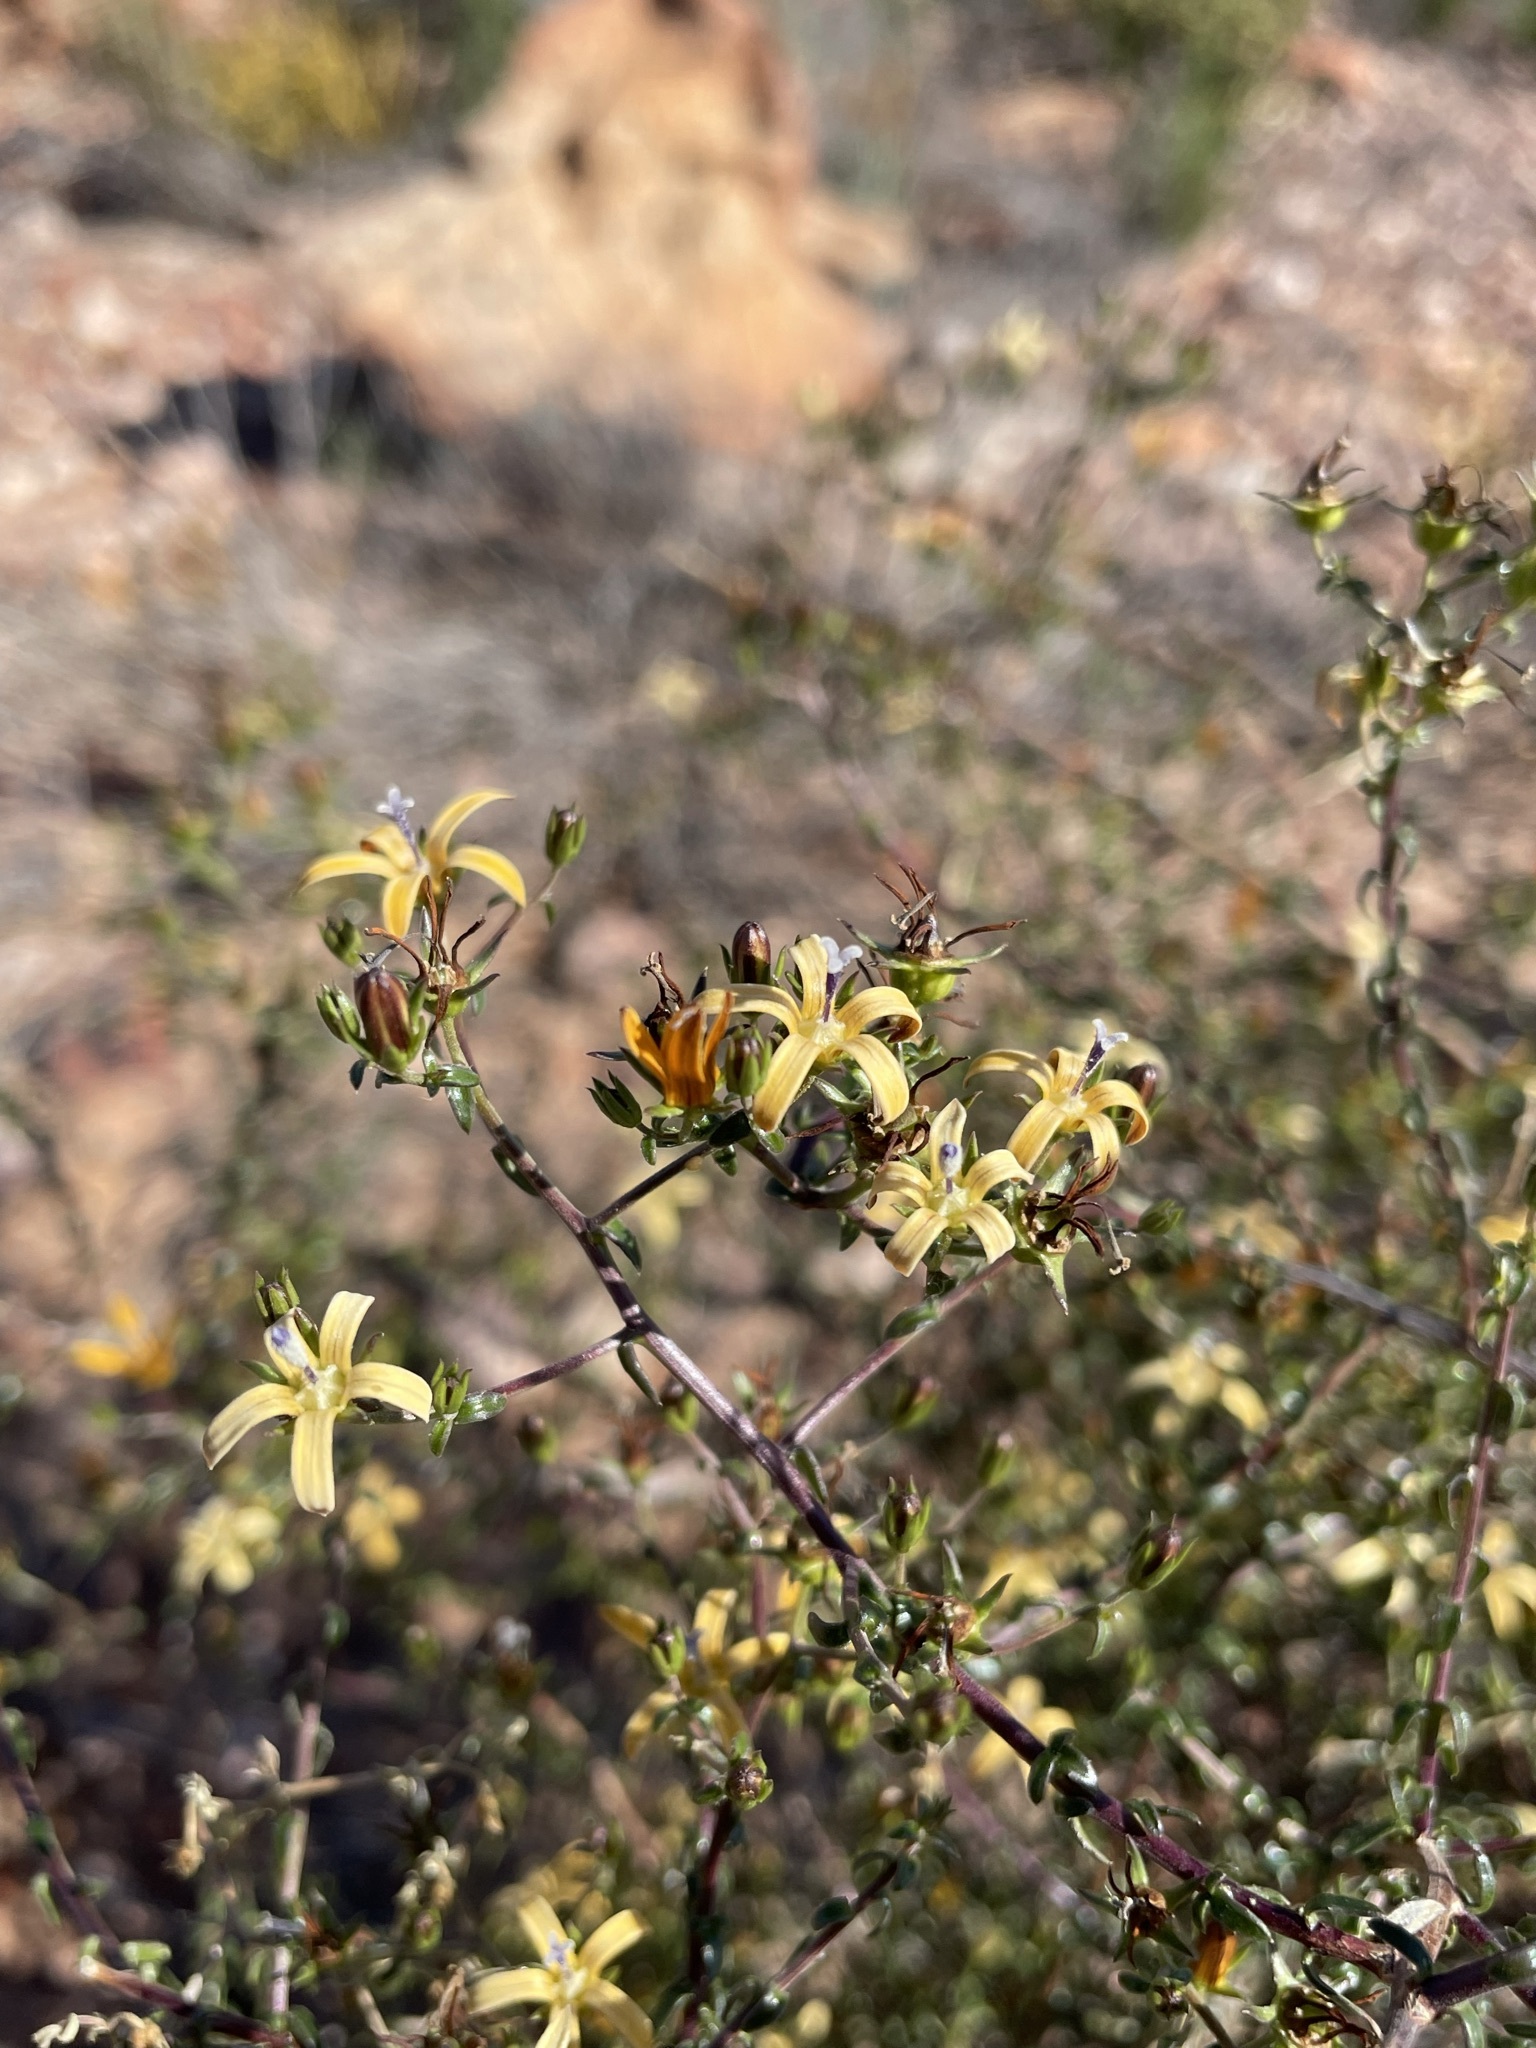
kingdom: Plantae
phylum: Tracheophyta
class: Magnoliopsida
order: Asterales
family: Campanulaceae
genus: Wahlenbergia
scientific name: Wahlenbergia nodosa
